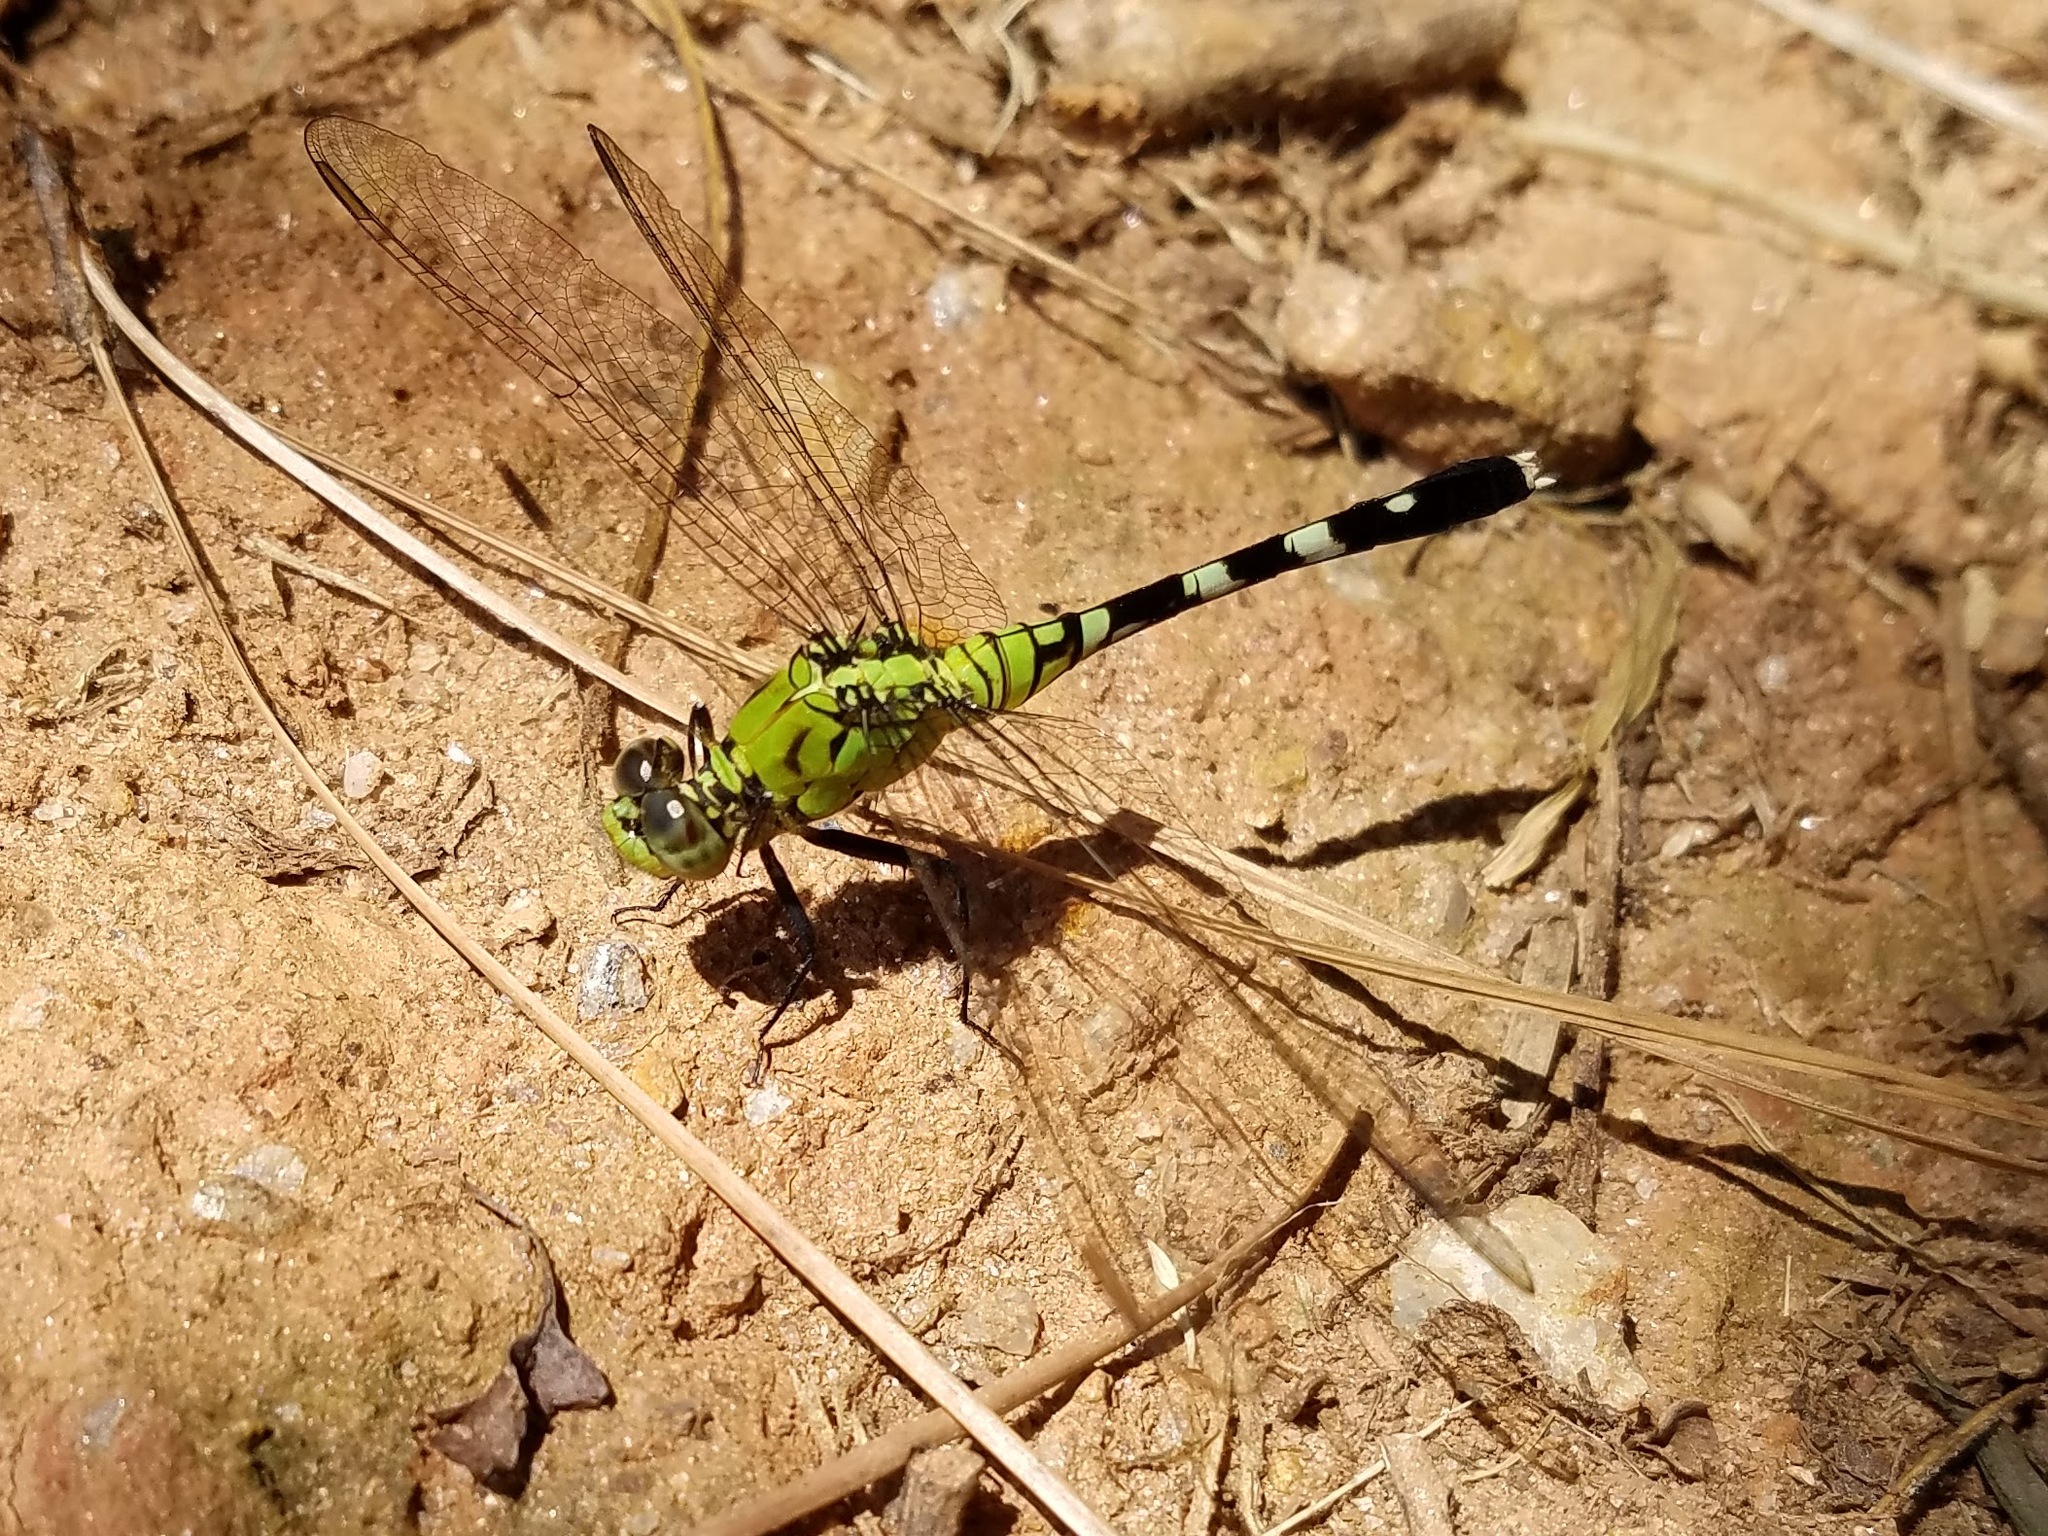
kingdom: Animalia
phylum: Arthropoda
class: Insecta
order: Odonata
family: Libellulidae
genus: Erythemis
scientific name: Erythemis simplicicollis
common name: Eastern pondhawk
